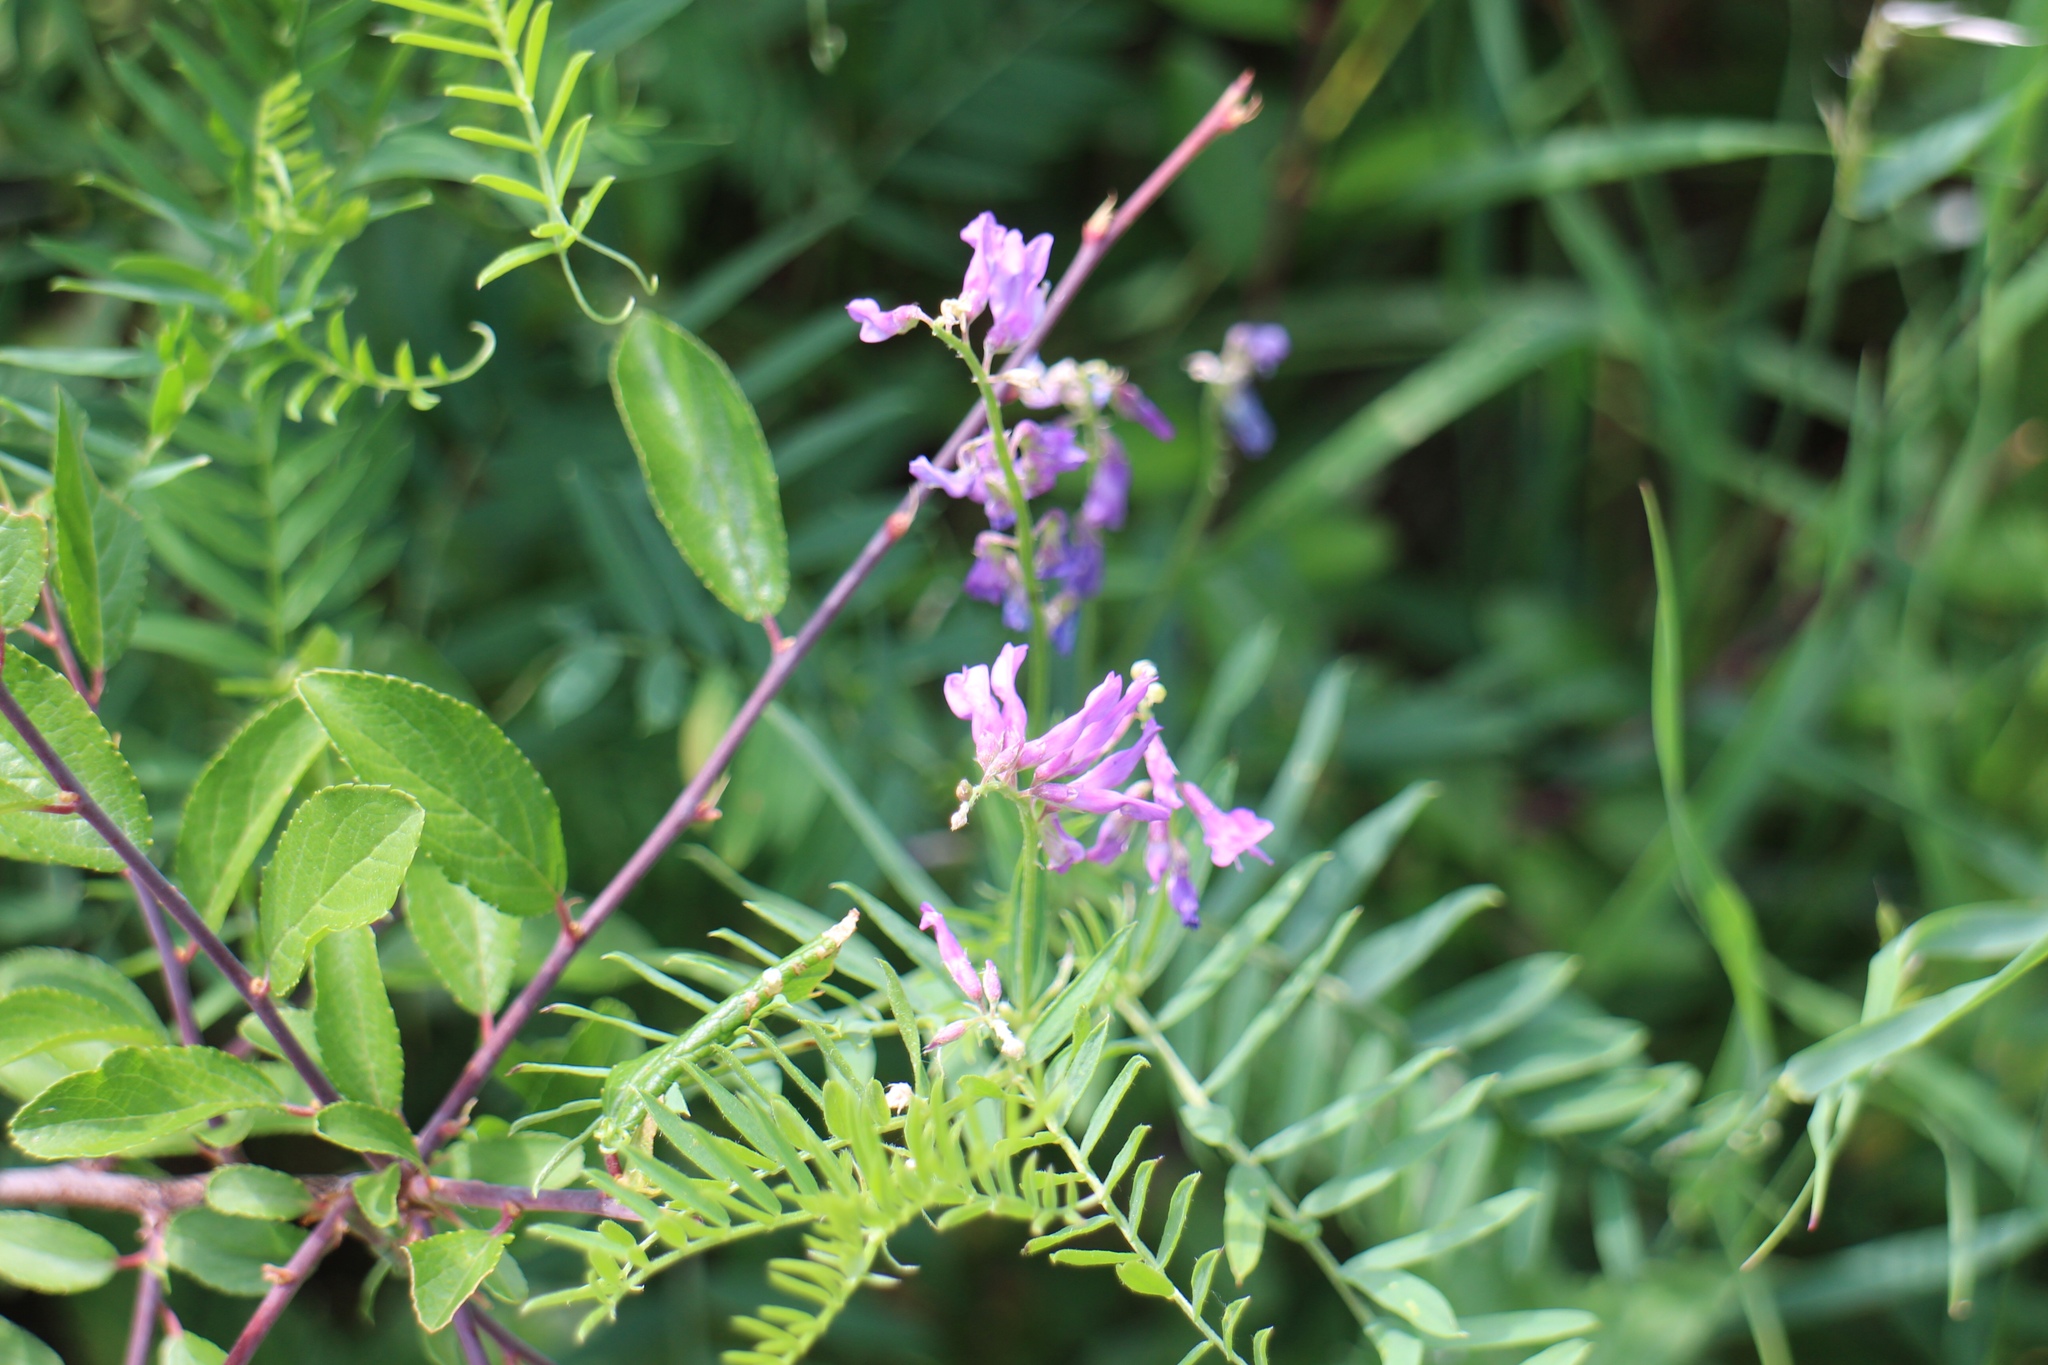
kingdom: Plantae
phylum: Tracheophyta
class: Magnoliopsida
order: Fabales
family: Fabaceae
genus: Vicia
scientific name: Vicia cracca
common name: Bird vetch
